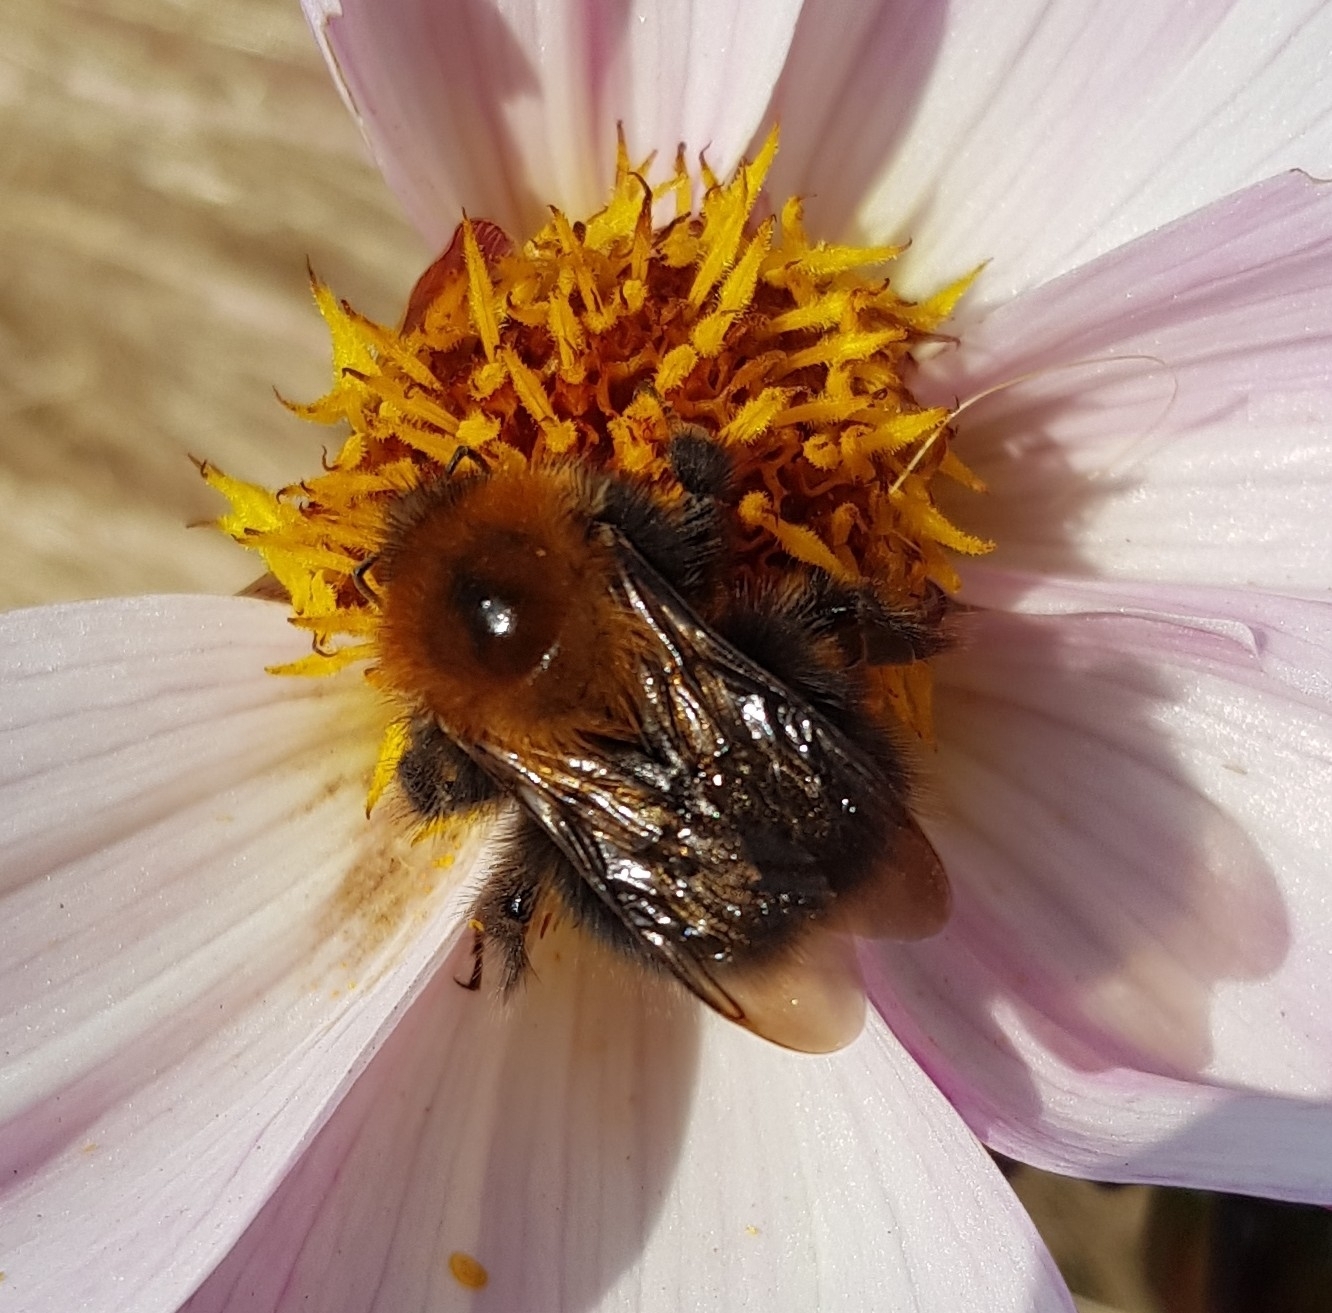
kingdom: Animalia
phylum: Arthropoda
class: Insecta
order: Hymenoptera
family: Apidae
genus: Bombus
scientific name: Bombus hypnorum
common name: New garden bumblebee
